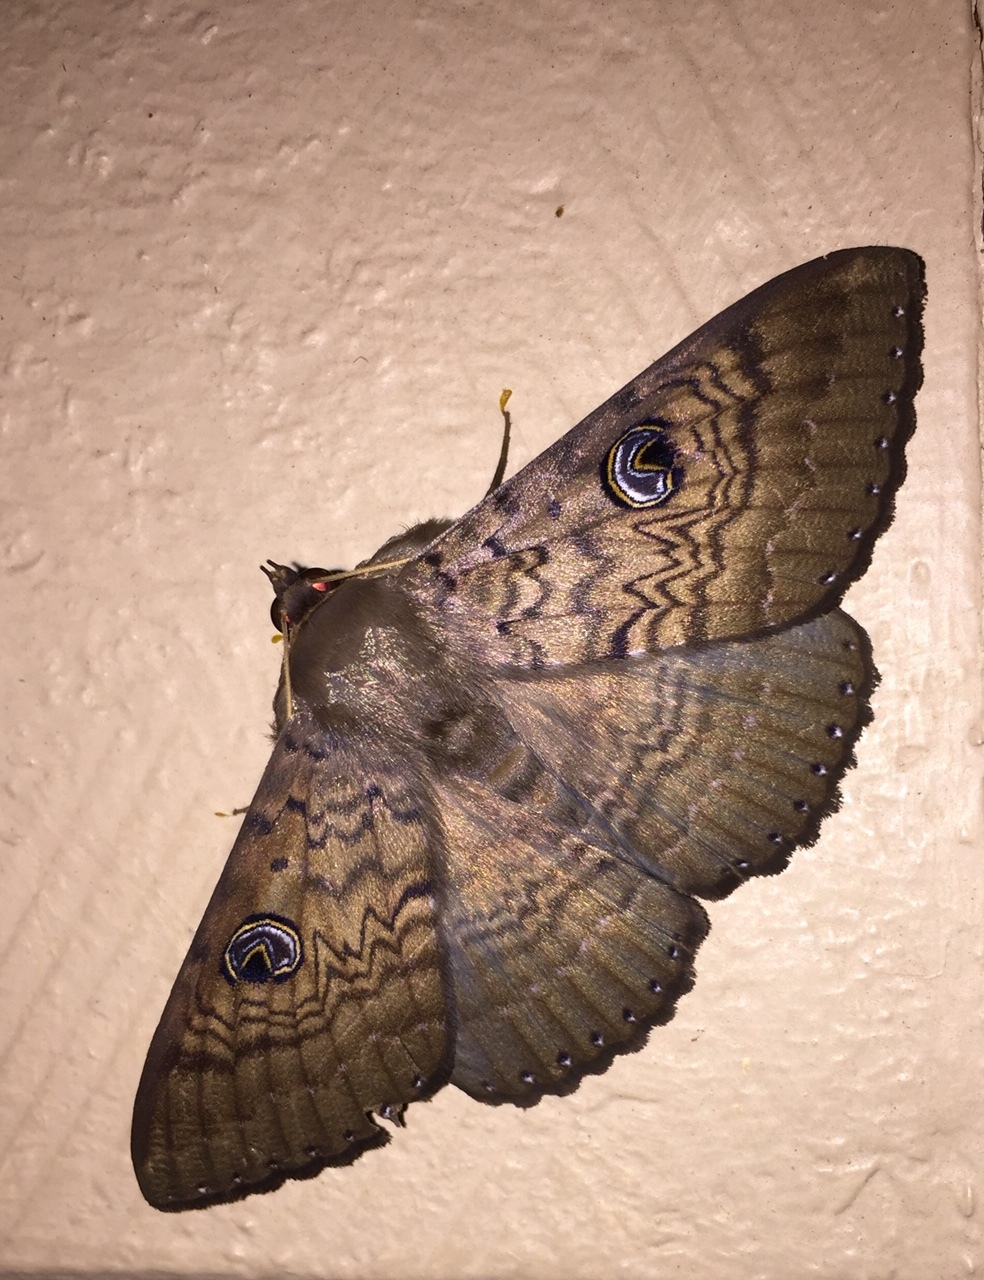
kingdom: Animalia
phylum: Arthropoda
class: Insecta
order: Lepidoptera
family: Erebidae
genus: Dasypodia
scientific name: Dasypodia cymatodes
